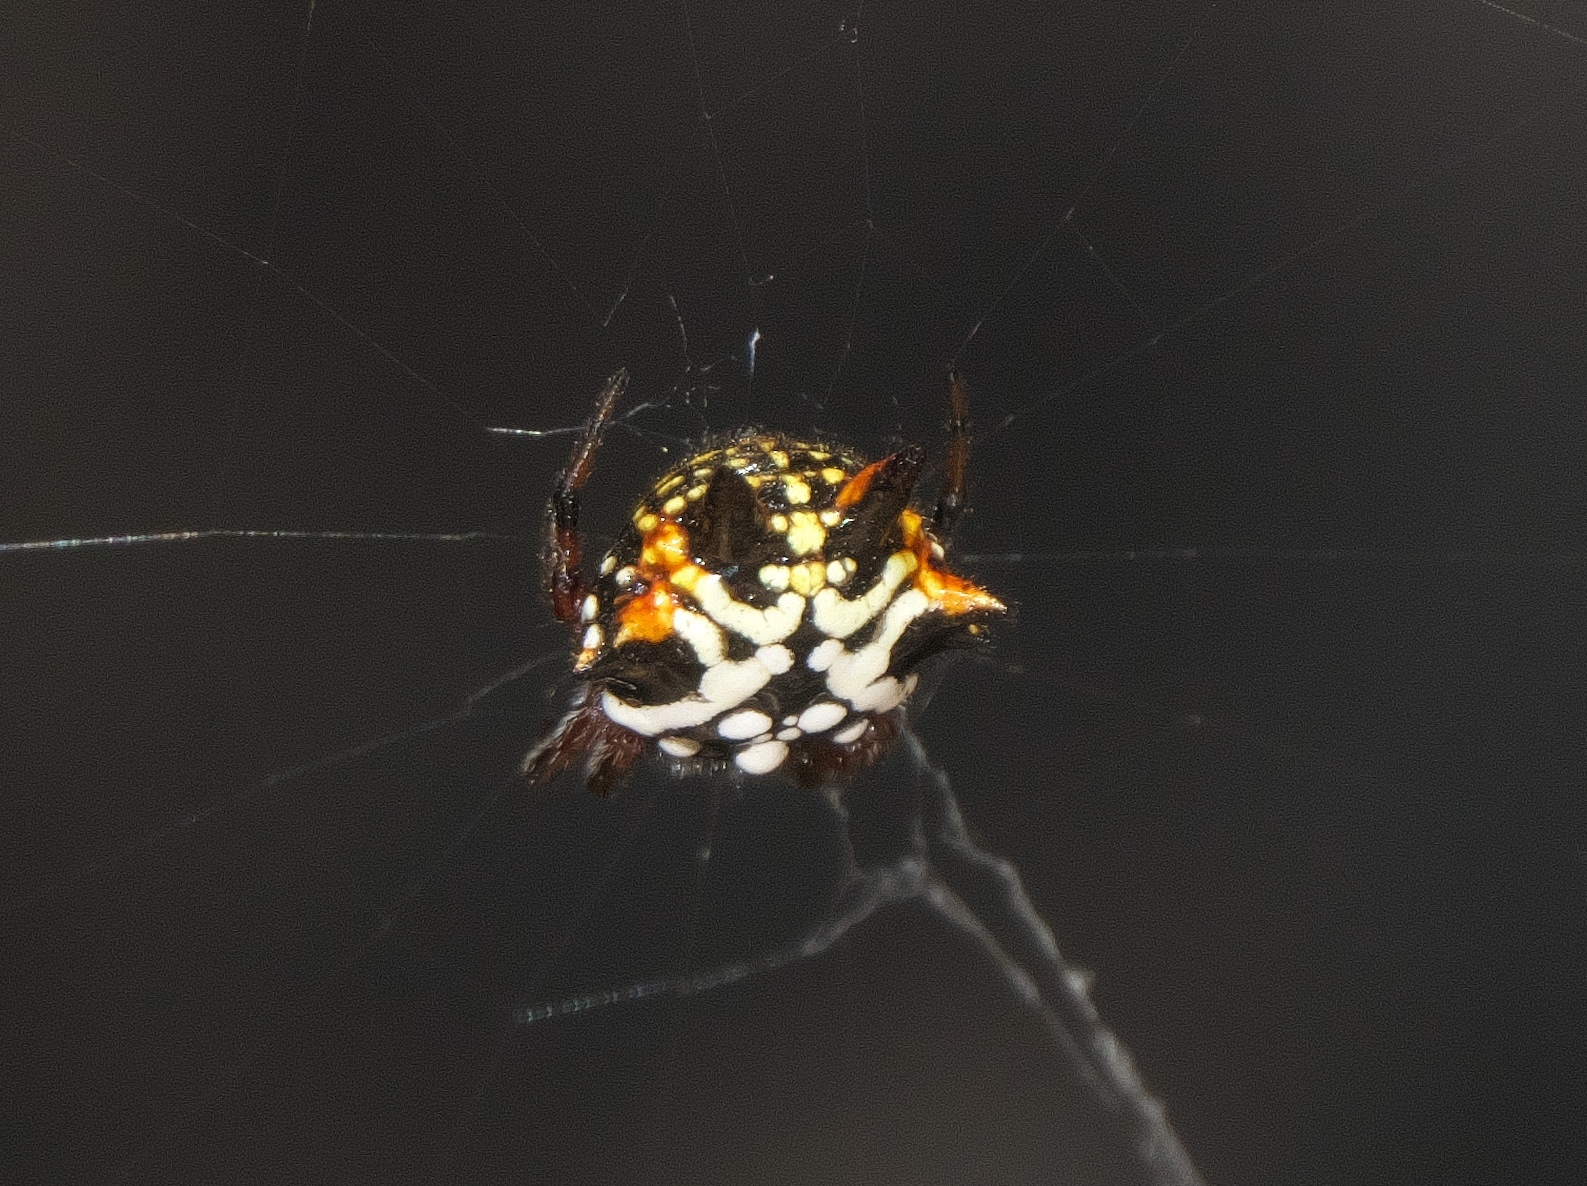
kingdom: Animalia
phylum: Arthropoda
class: Arachnida
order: Araneae
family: Araneidae
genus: Austracantha
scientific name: Austracantha minax
